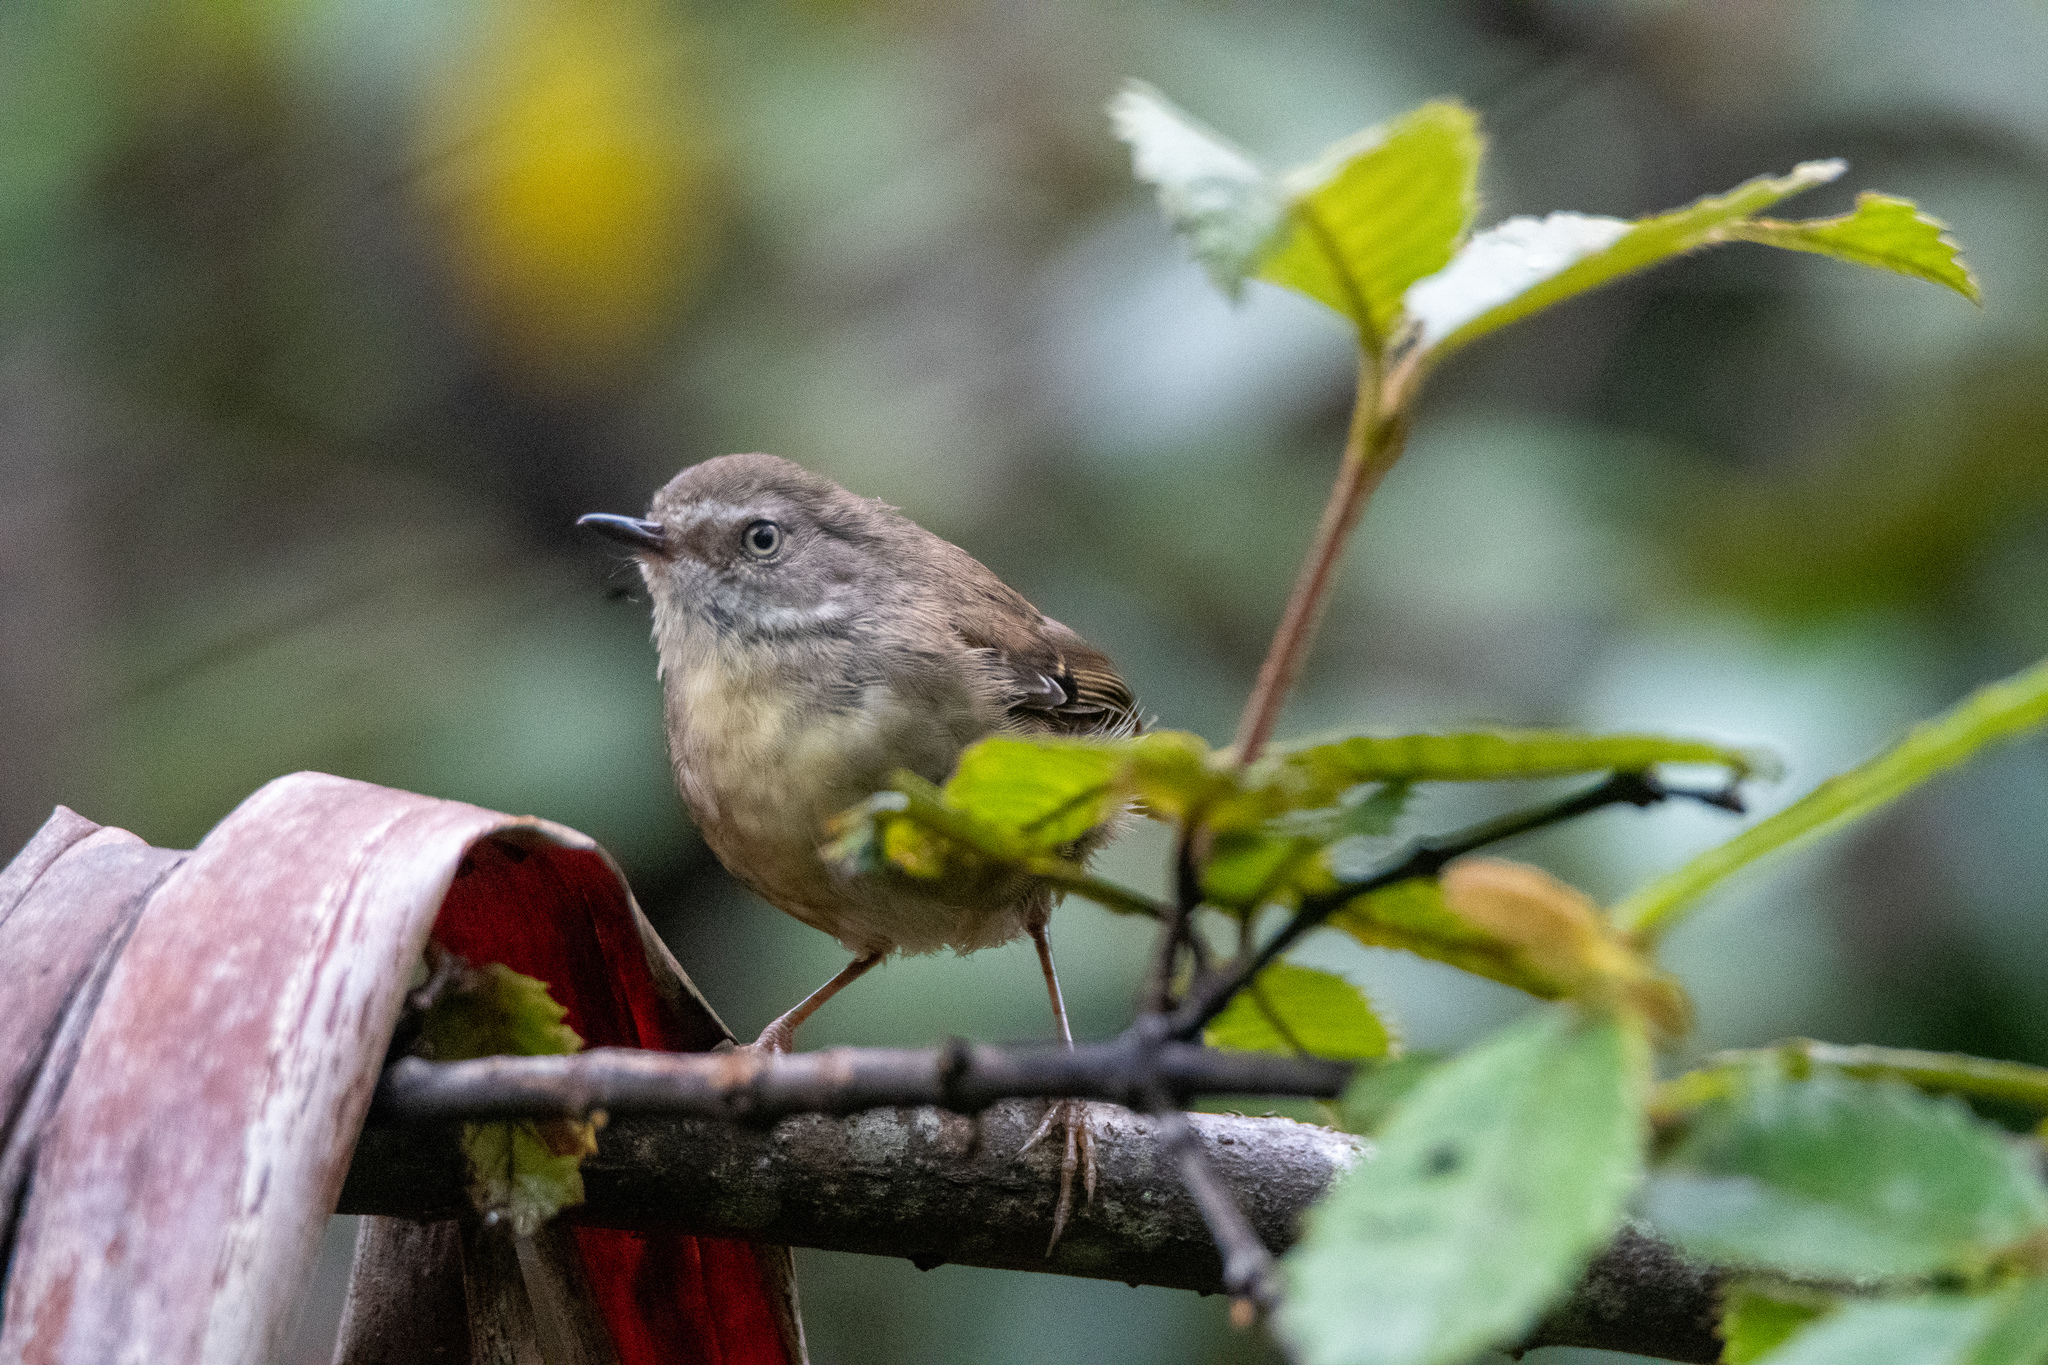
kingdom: Animalia
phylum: Chordata
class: Aves
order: Passeriformes
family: Acanthizidae
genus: Sericornis
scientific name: Sericornis frontalis
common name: White-browed scrubwren
